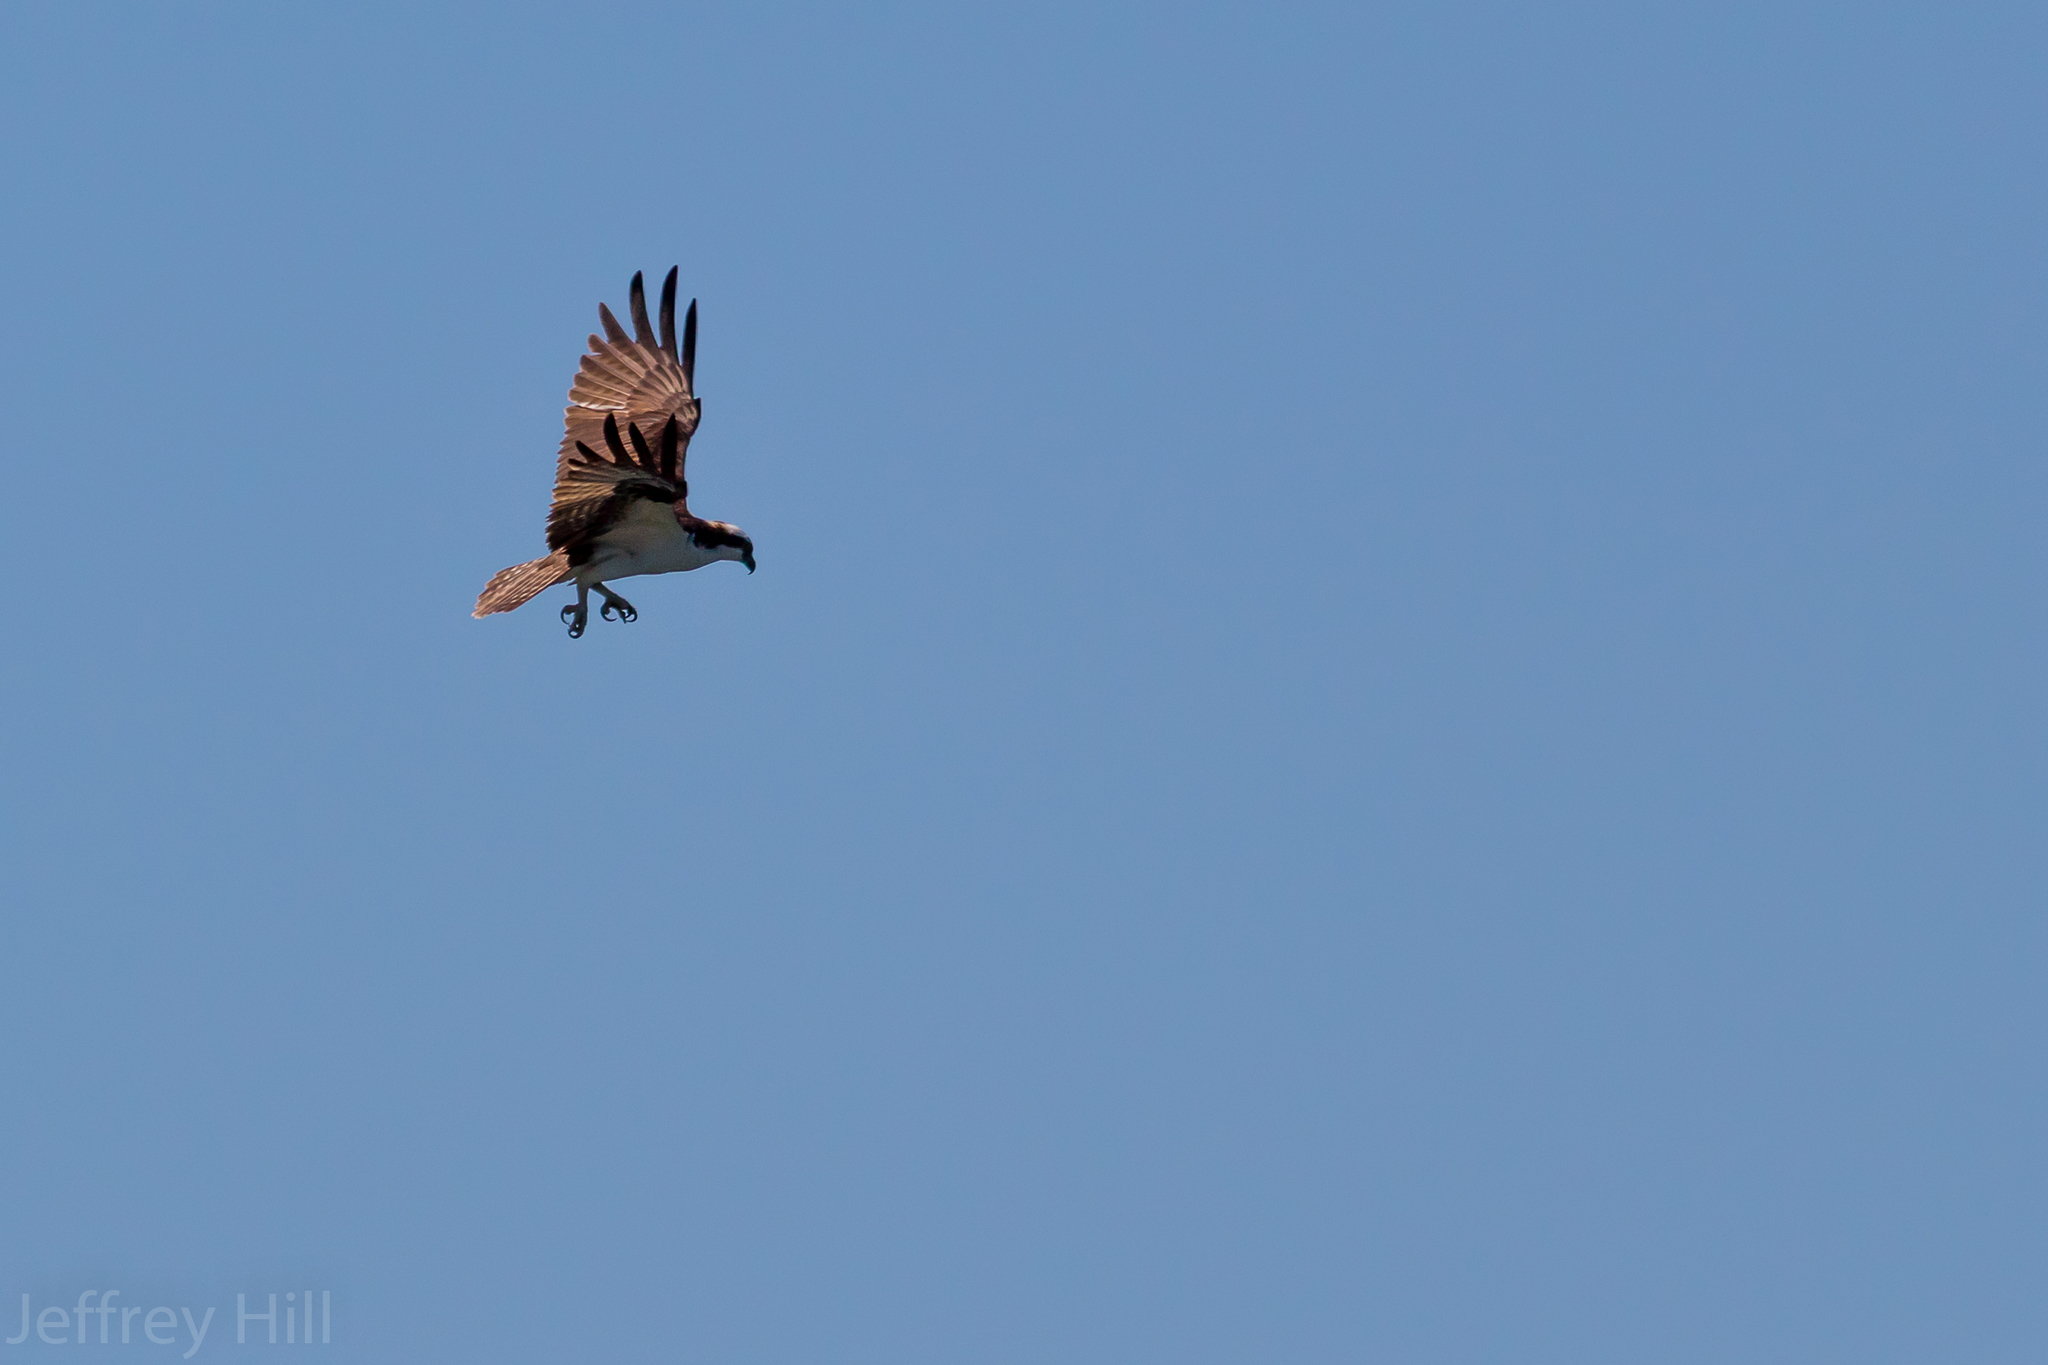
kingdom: Animalia
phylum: Chordata
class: Aves
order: Accipitriformes
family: Pandionidae
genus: Pandion
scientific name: Pandion haliaetus
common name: Osprey
